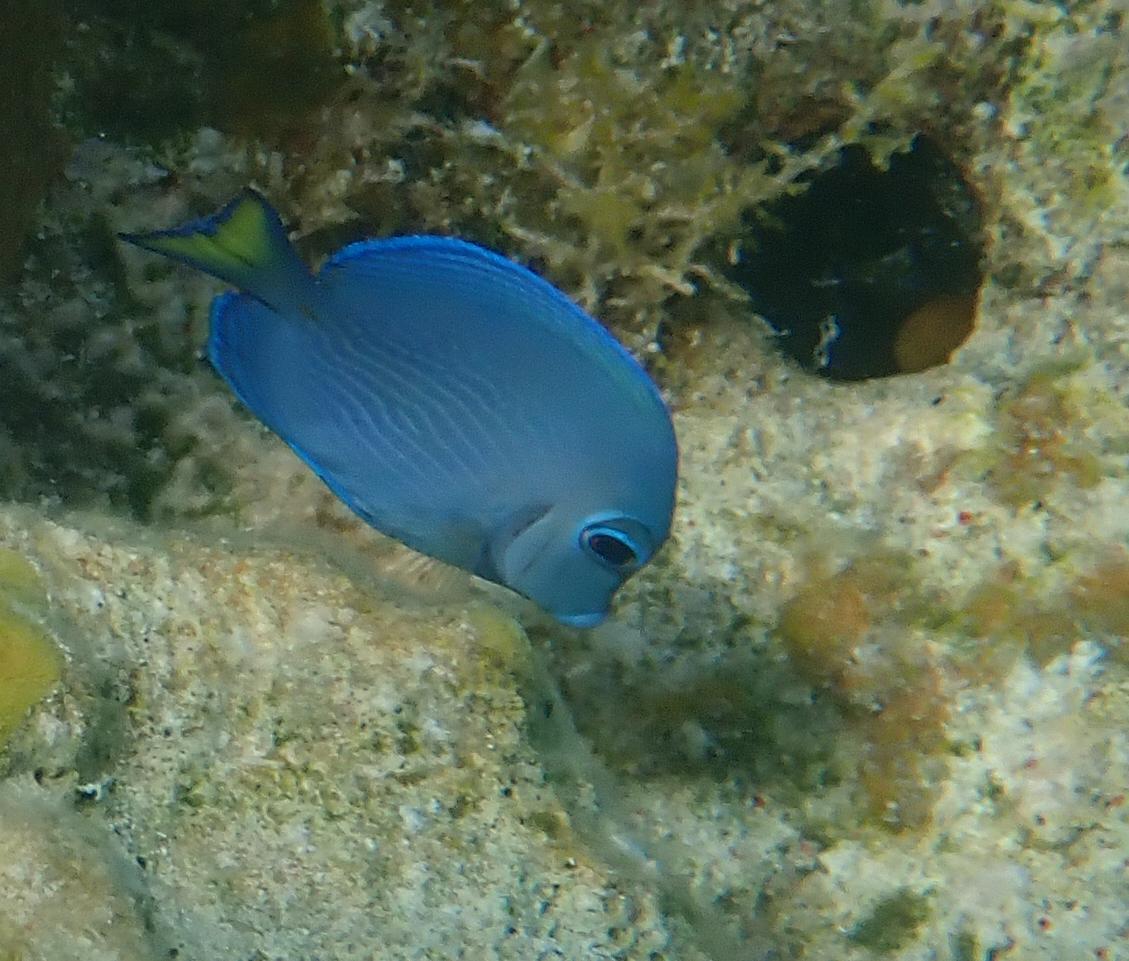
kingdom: Animalia
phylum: Chordata
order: Perciformes
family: Acanthuridae
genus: Acanthurus
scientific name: Acanthurus coeruleus
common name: Blue tang
